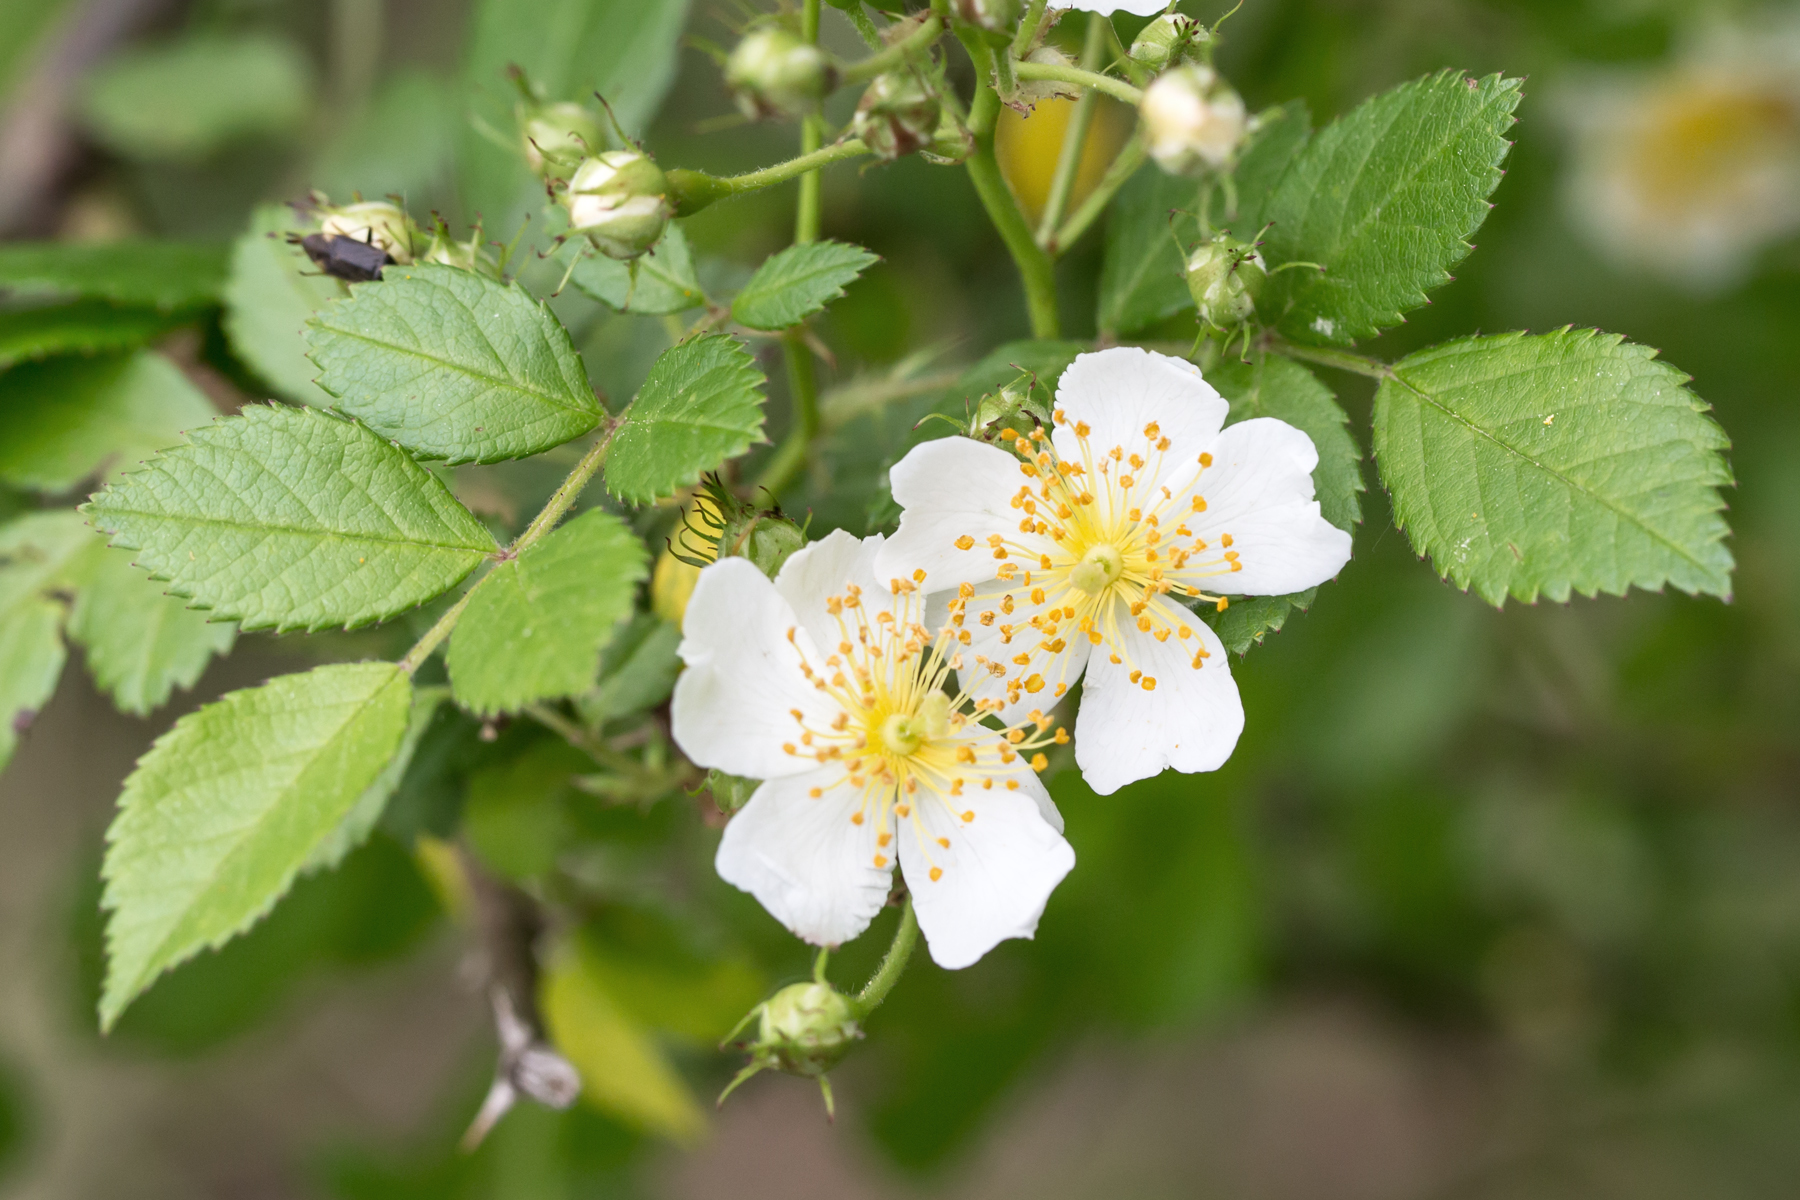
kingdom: Plantae
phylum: Tracheophyta
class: Magnoliopsida
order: Rosales
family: Rosaceae
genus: Rosa
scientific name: Rosa multiflora
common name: Multiflora rose
